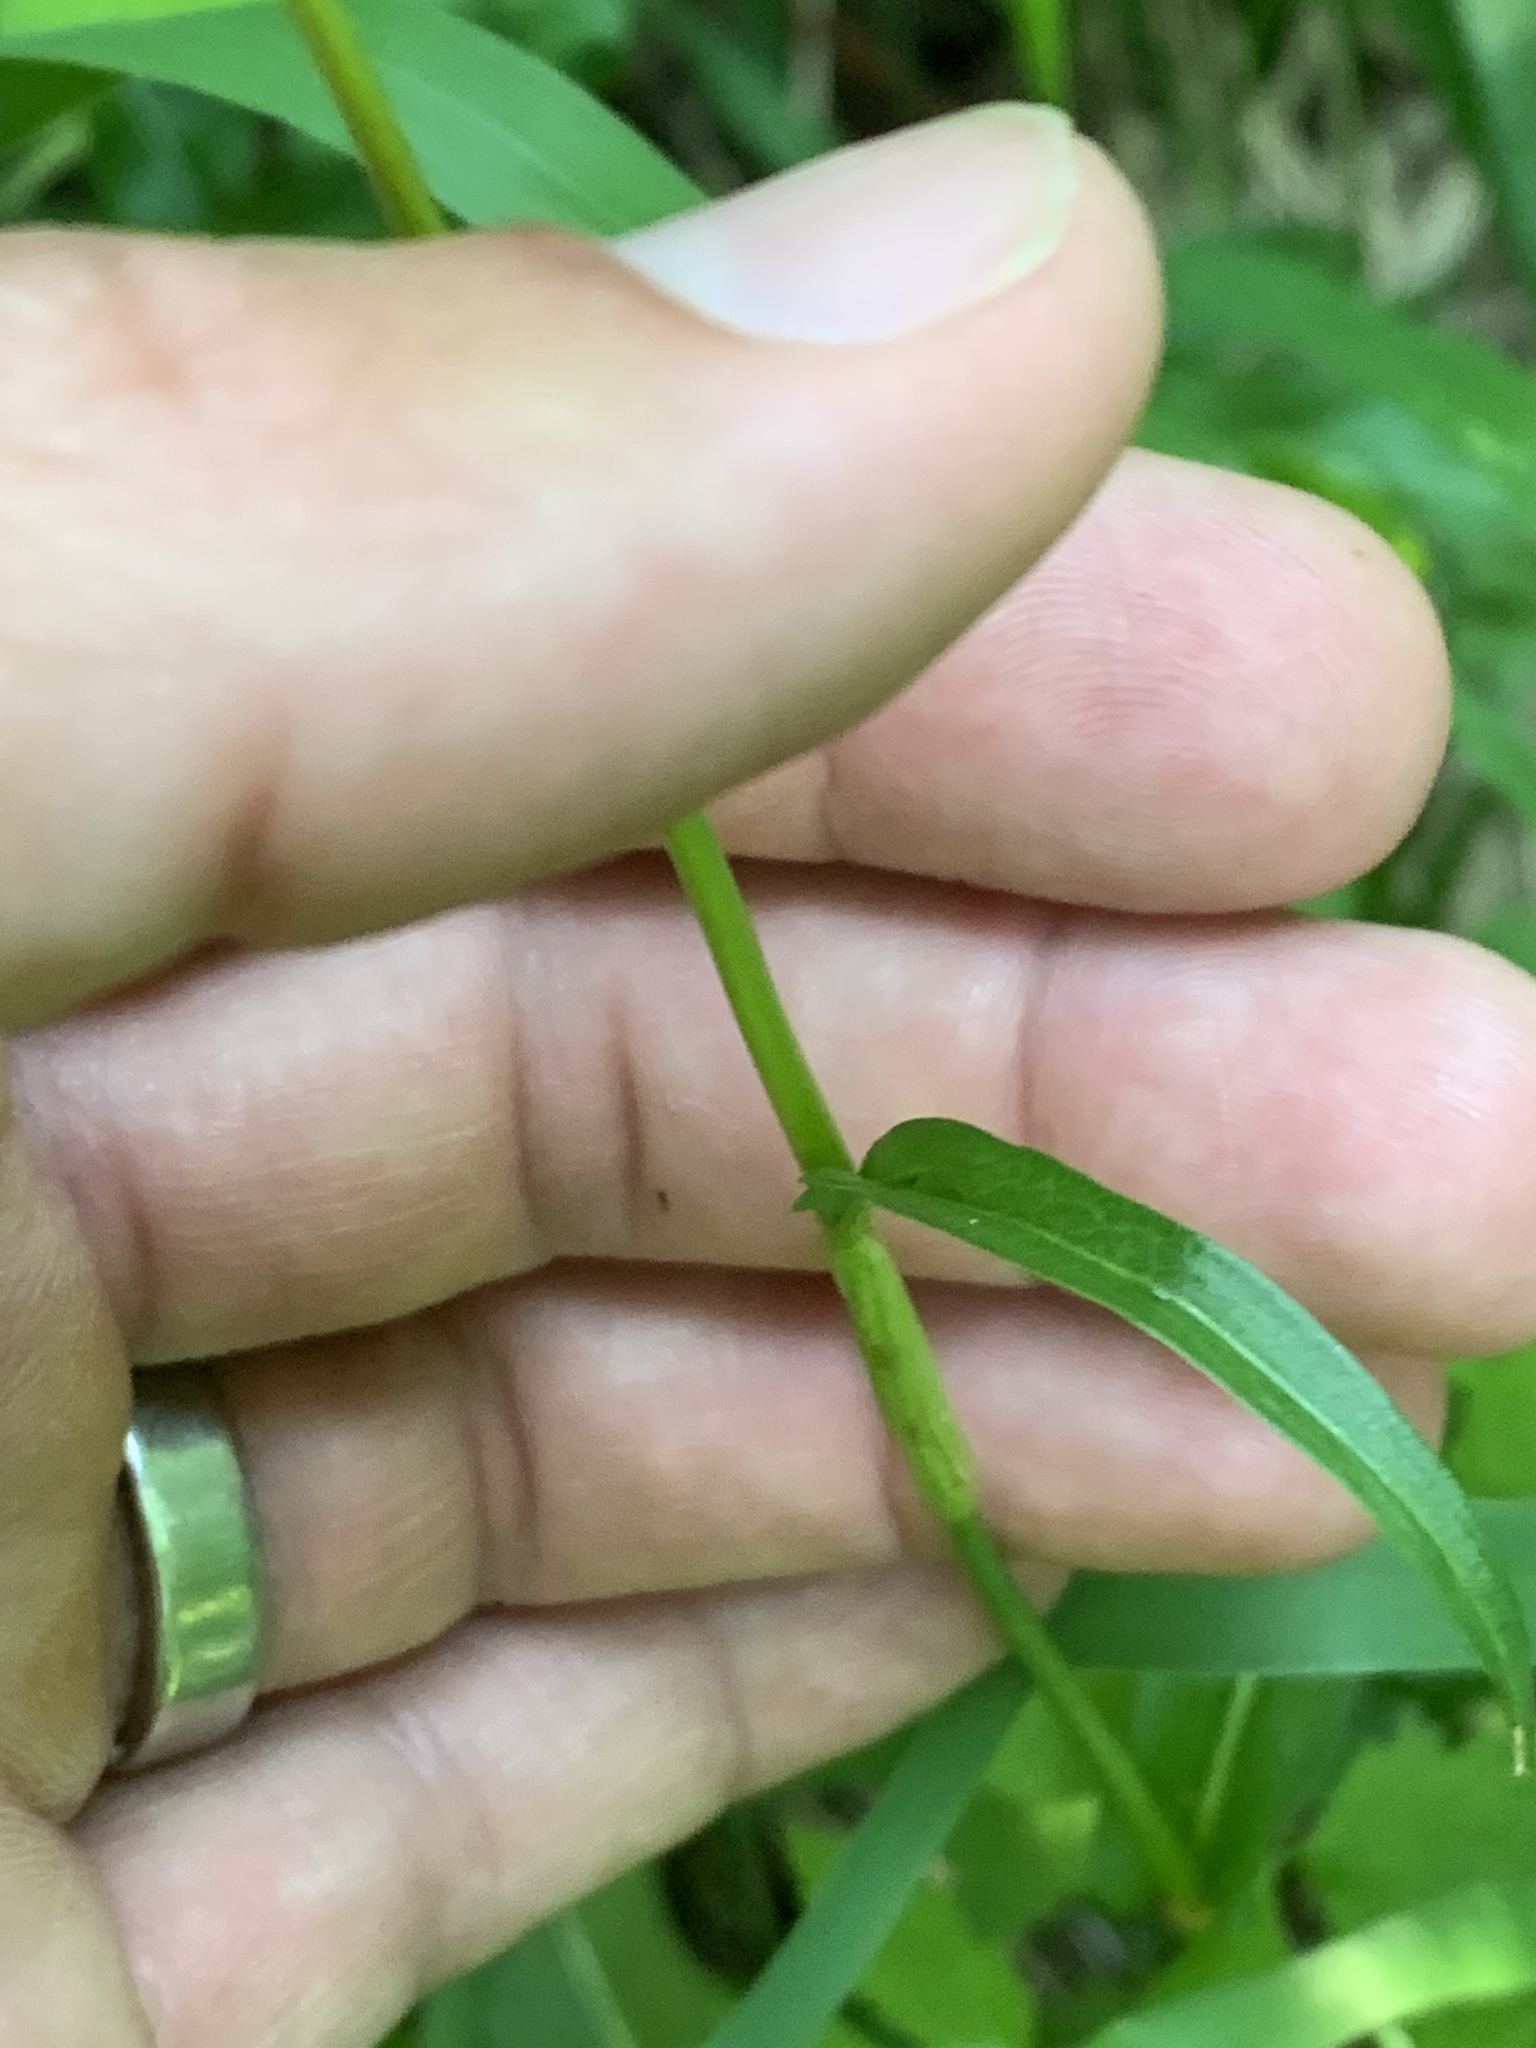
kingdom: Plantae
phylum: Tracheophyta
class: Magnoliopsida
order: Caryophyllales
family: Polygonaceae
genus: Bistorta
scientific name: Bistorta bistortoides
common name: American bistort
